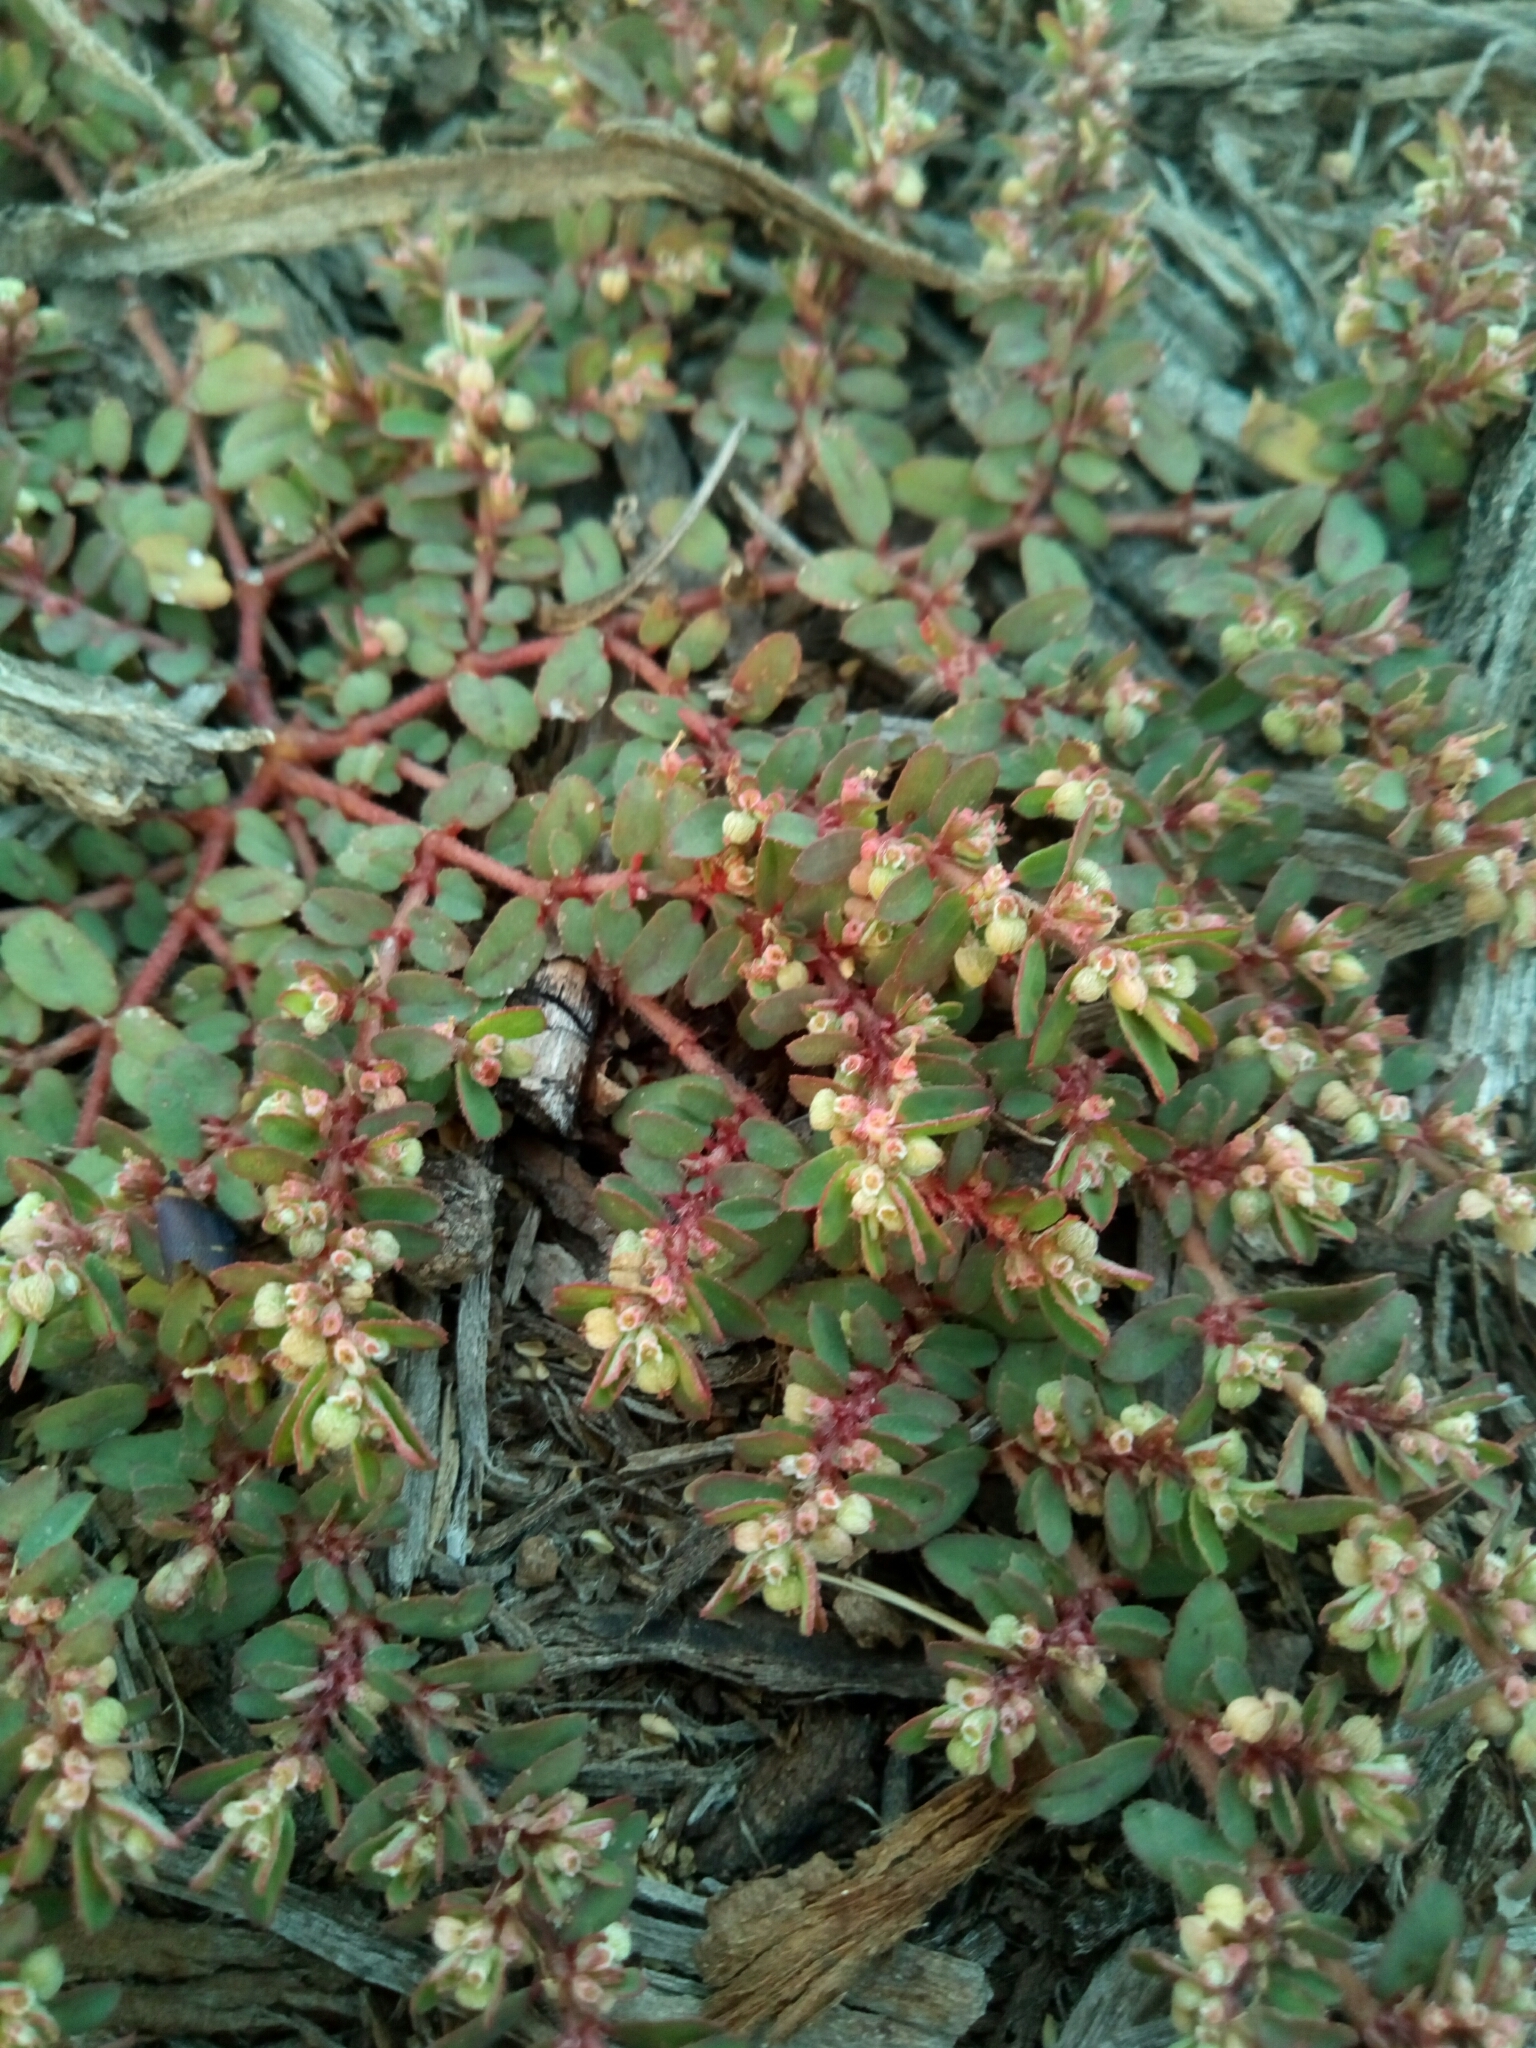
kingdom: Plantae
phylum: Tracheophyta
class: Magnoliopsida
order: Malpighiales
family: Euphorbiaceae
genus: Euphorbia
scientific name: Euphorbia maculata
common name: Spotted spurge
